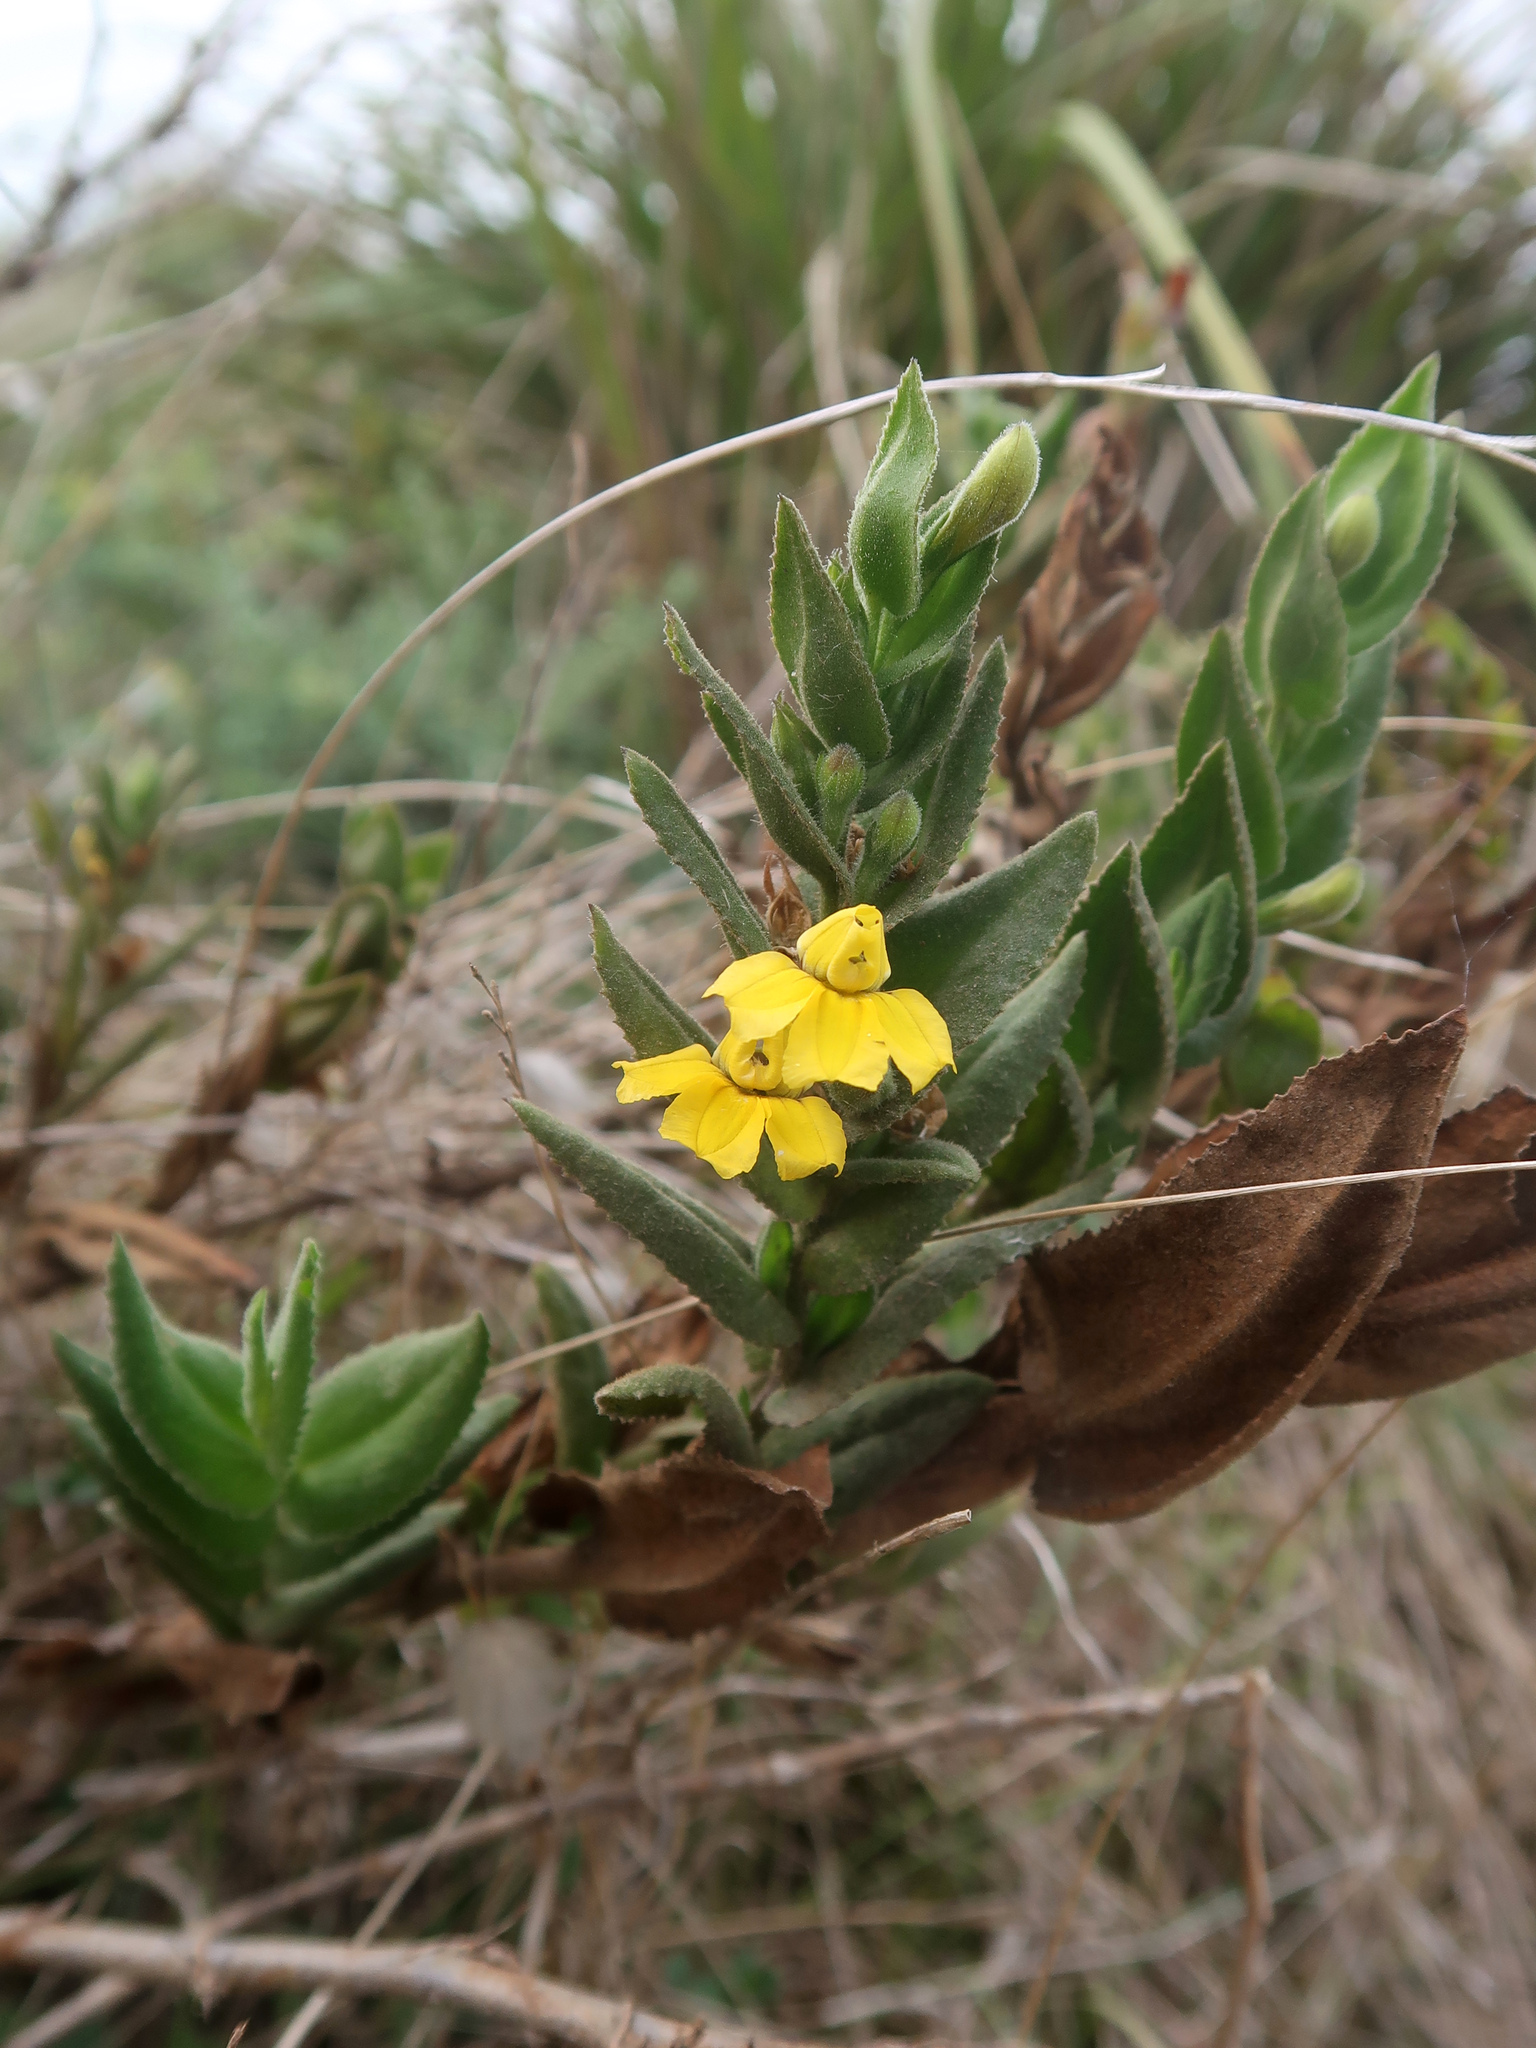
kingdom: Plantae
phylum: Tracheophyta
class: Magnoliopsida
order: Asterales
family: Goodeniaceae
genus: Goodenia
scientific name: Goodenia amplexans
